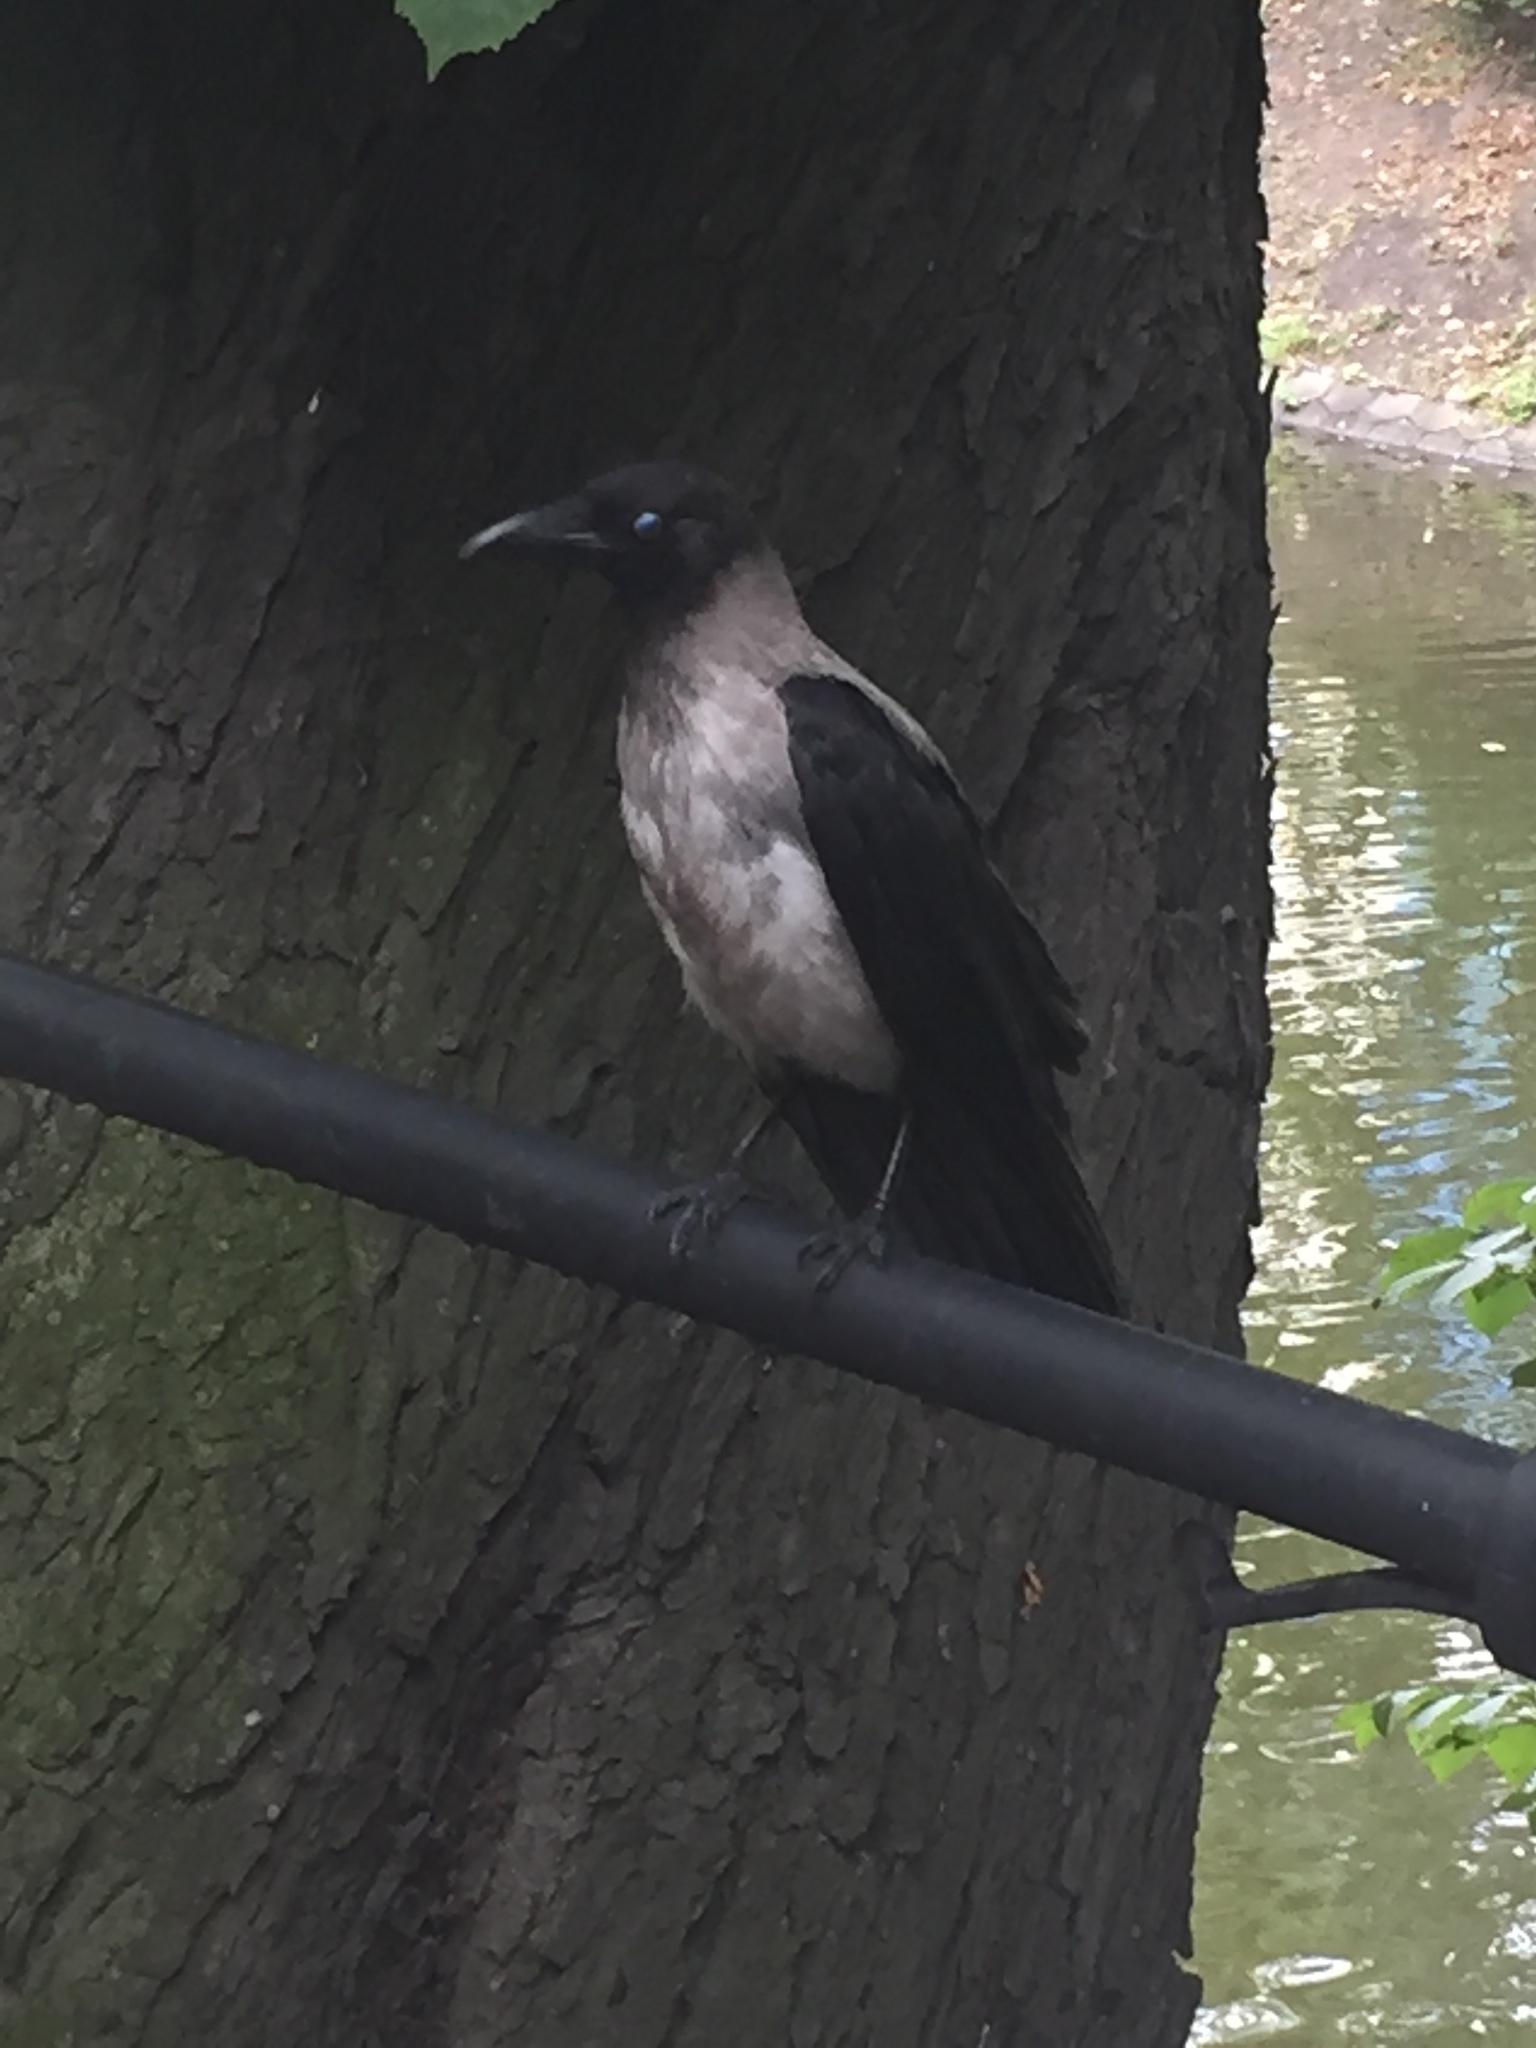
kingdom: Animalia
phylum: Chordata
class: Aves
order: Passeriformes
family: Corvidae
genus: Corvus
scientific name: Corvus cornix
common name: Hooded crow
